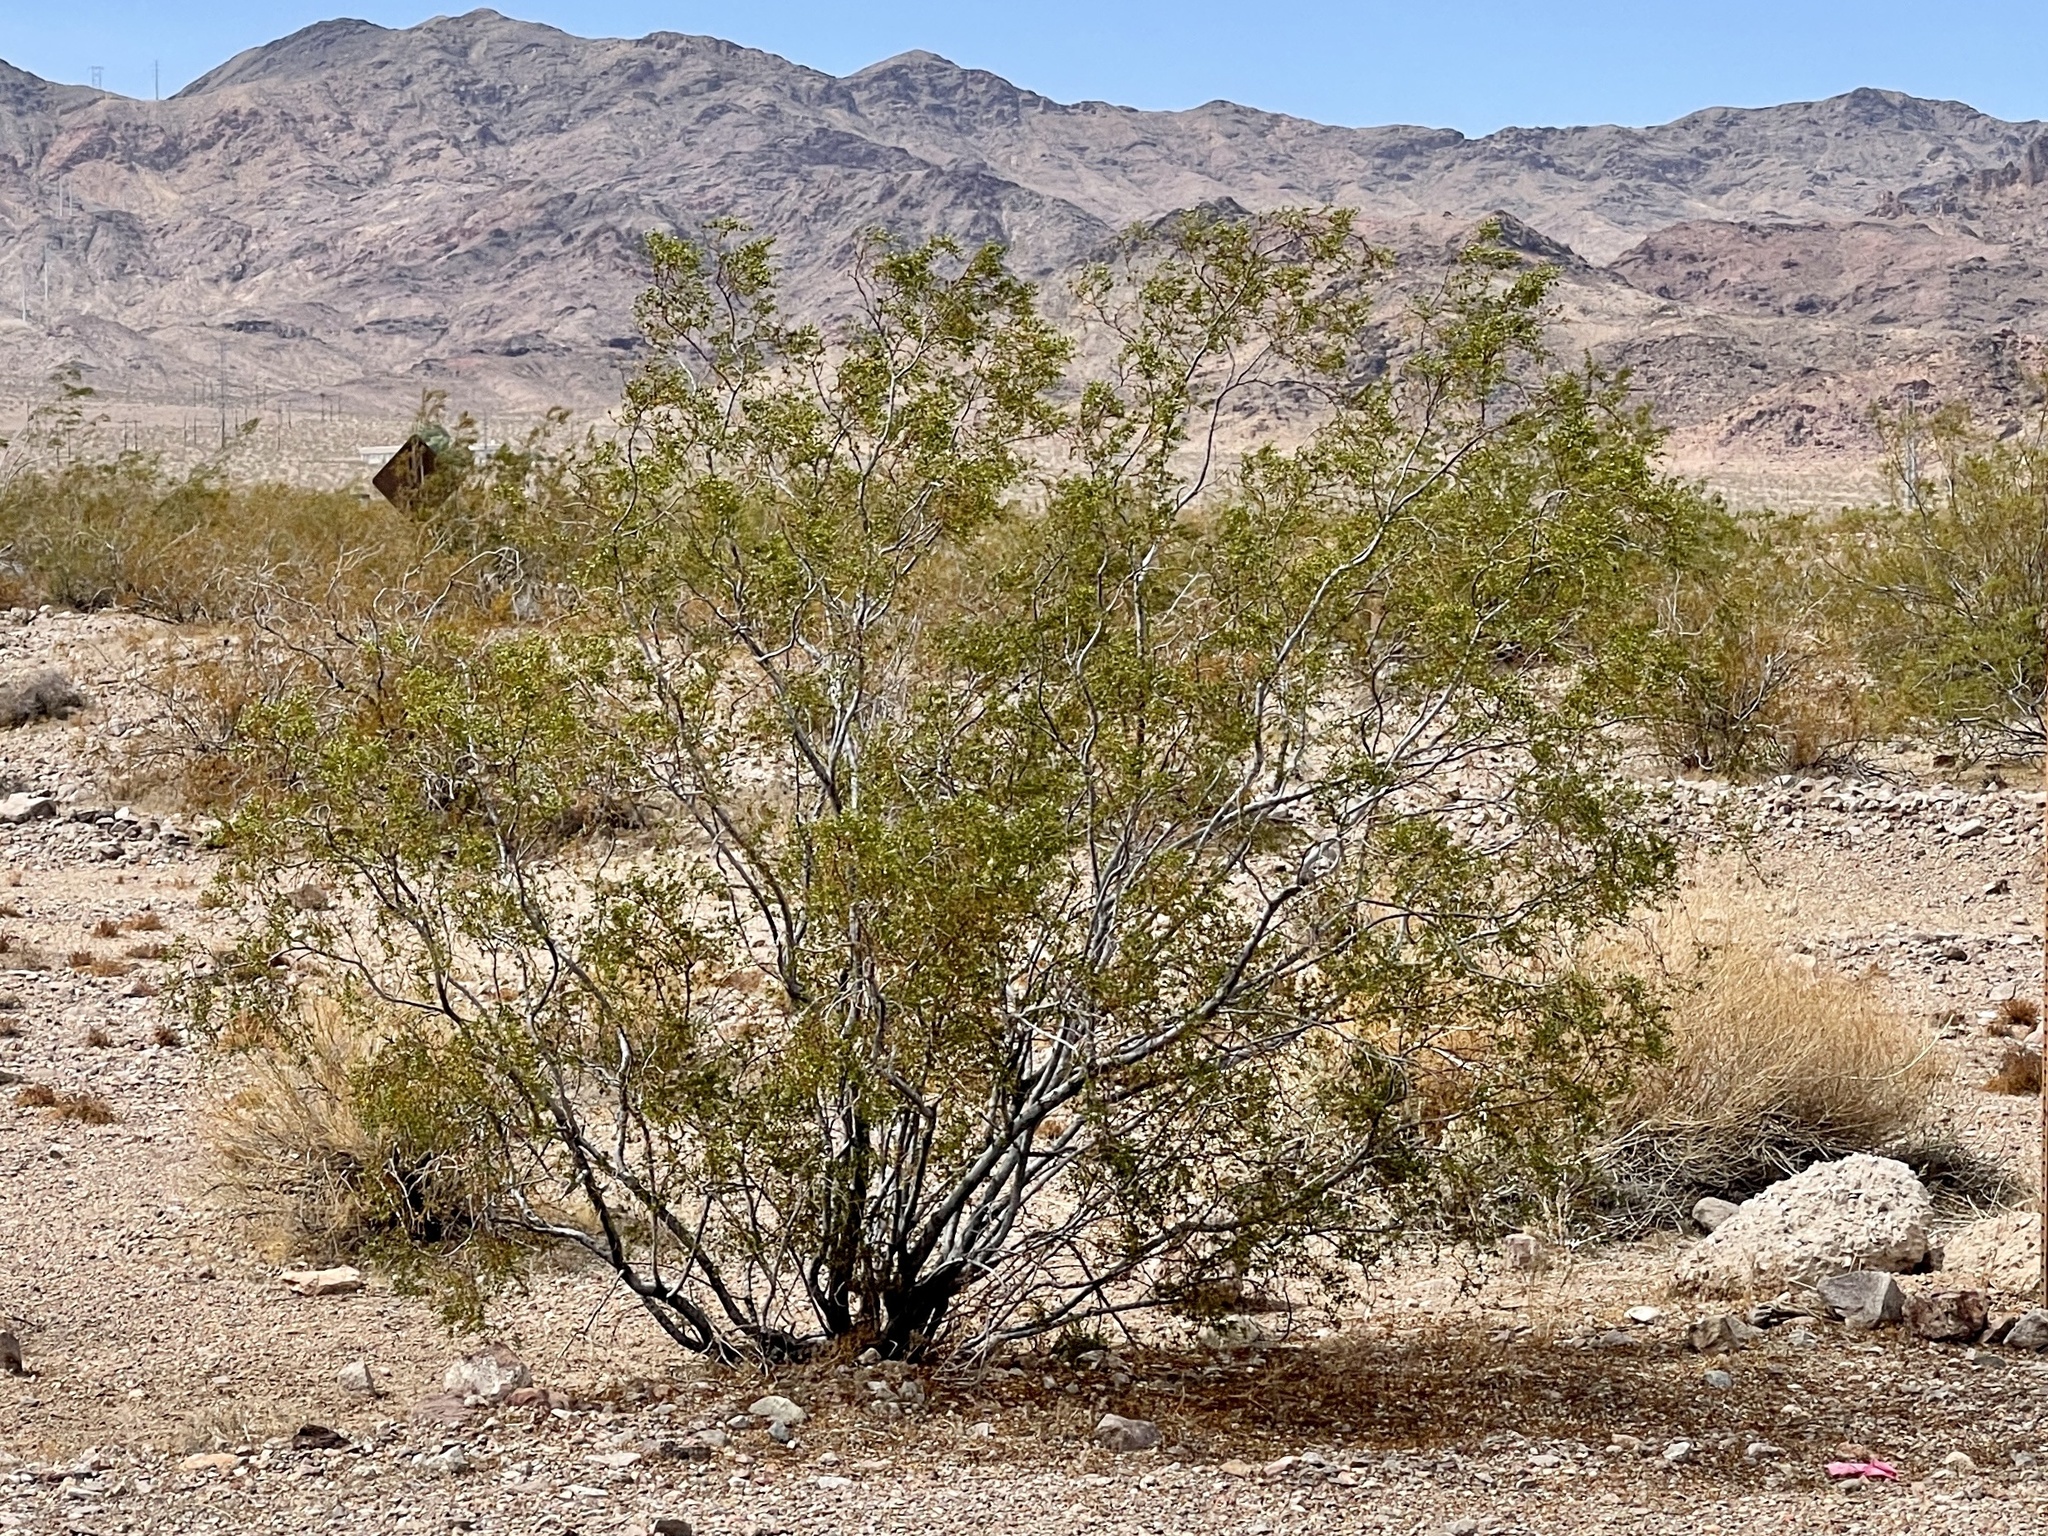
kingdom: Plantae
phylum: Tracheophyta
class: Magnoliopsida
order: Zygophyllales
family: Zygophyllaceae
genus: Larrea
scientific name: Larrea tridentata
